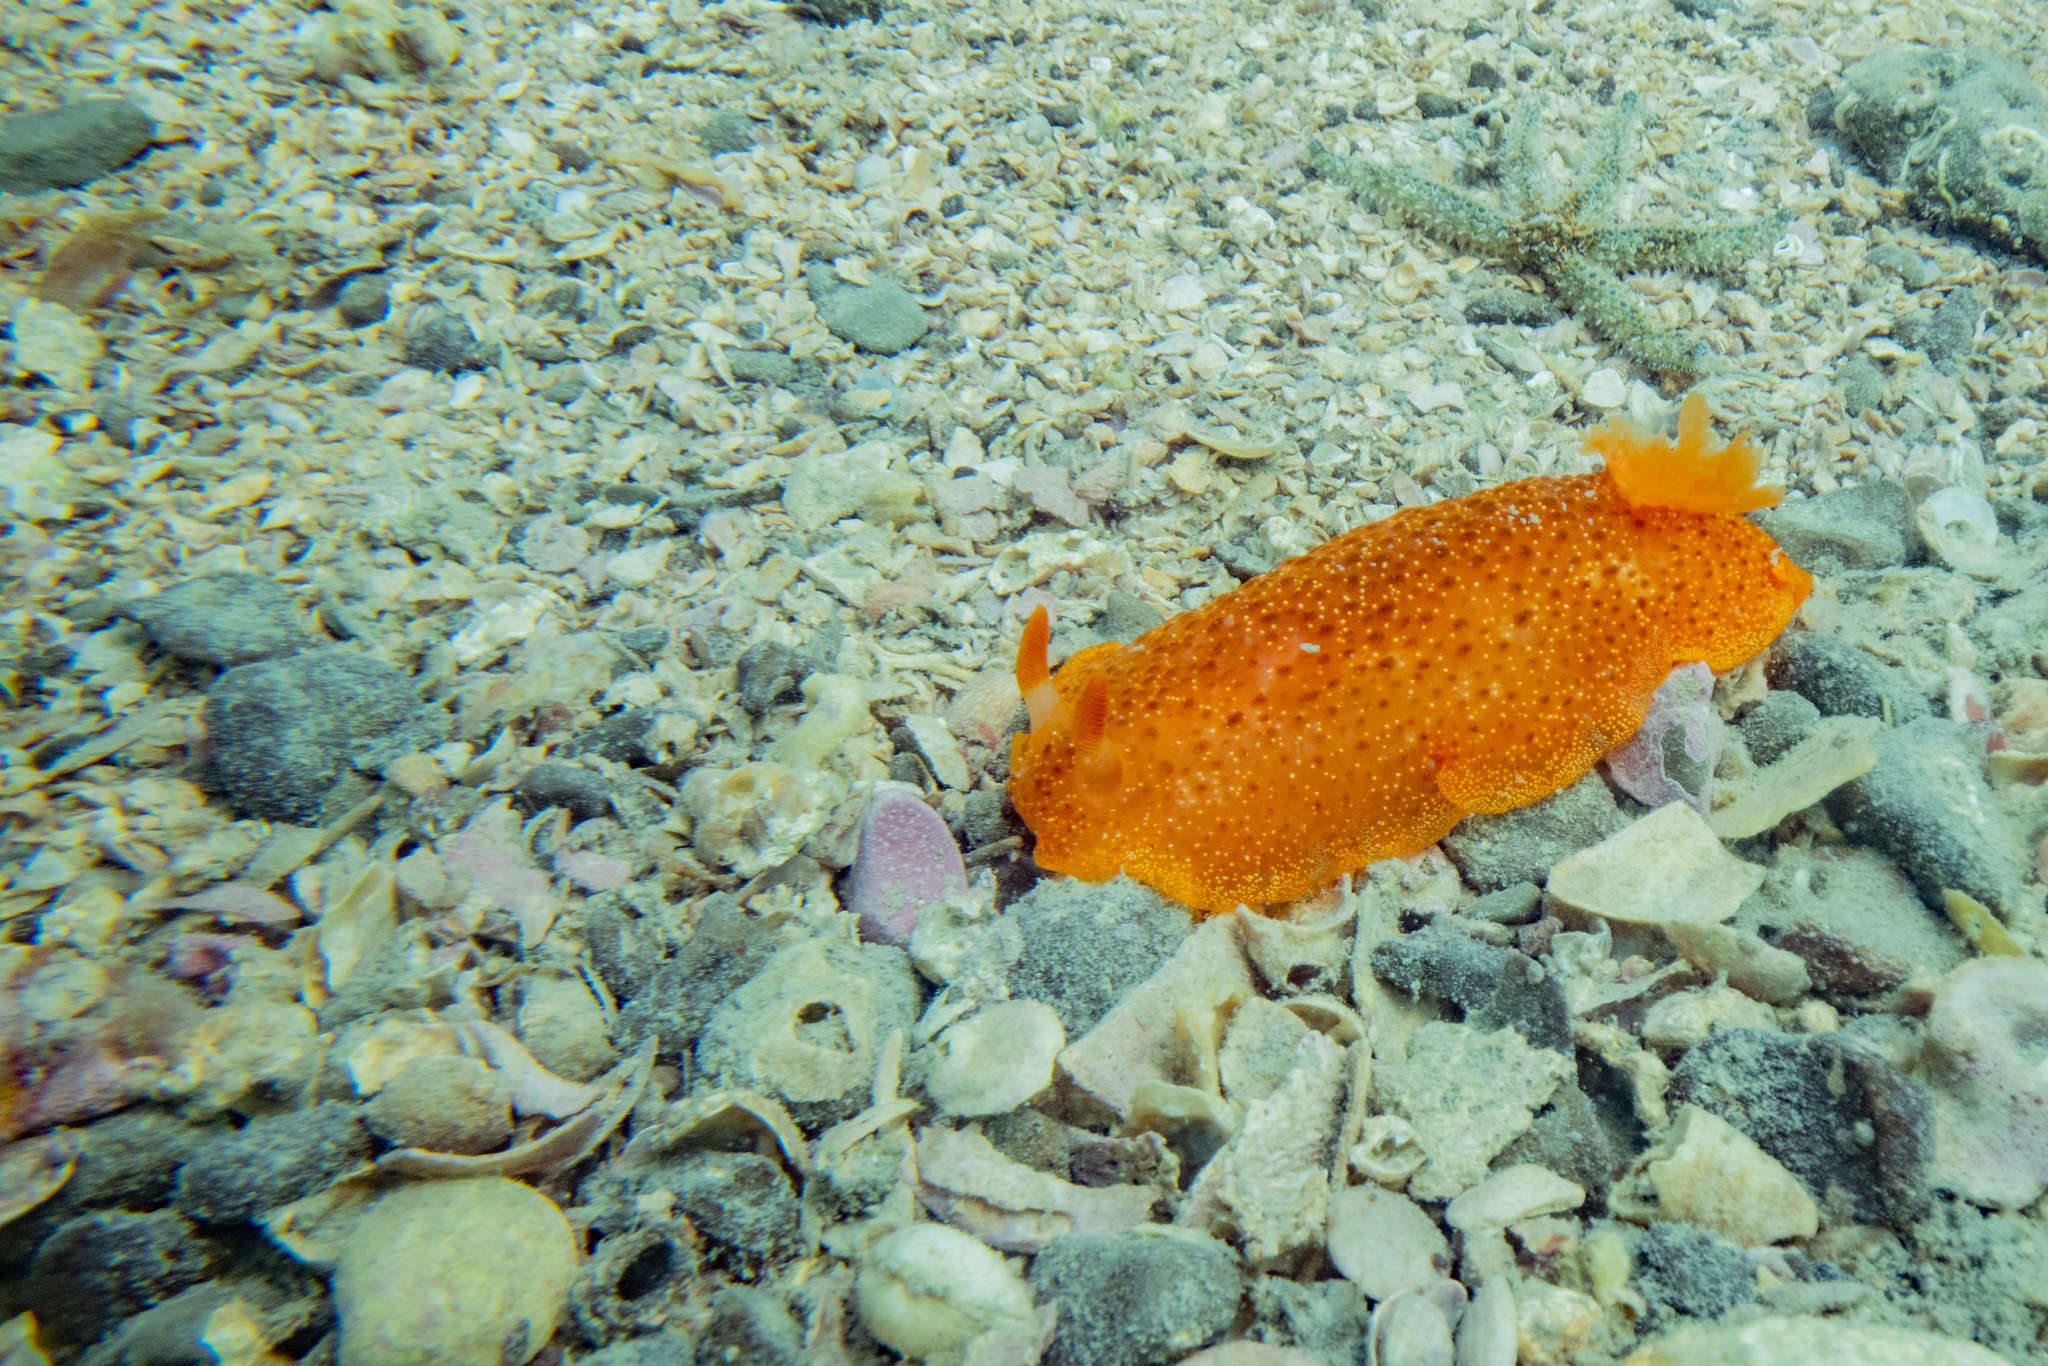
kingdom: Animalia
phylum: Mollusca
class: Gastropoda
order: Nudibranchia
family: Dendrodorididae
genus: Dendrodoris
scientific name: Dendrodoris citrina
